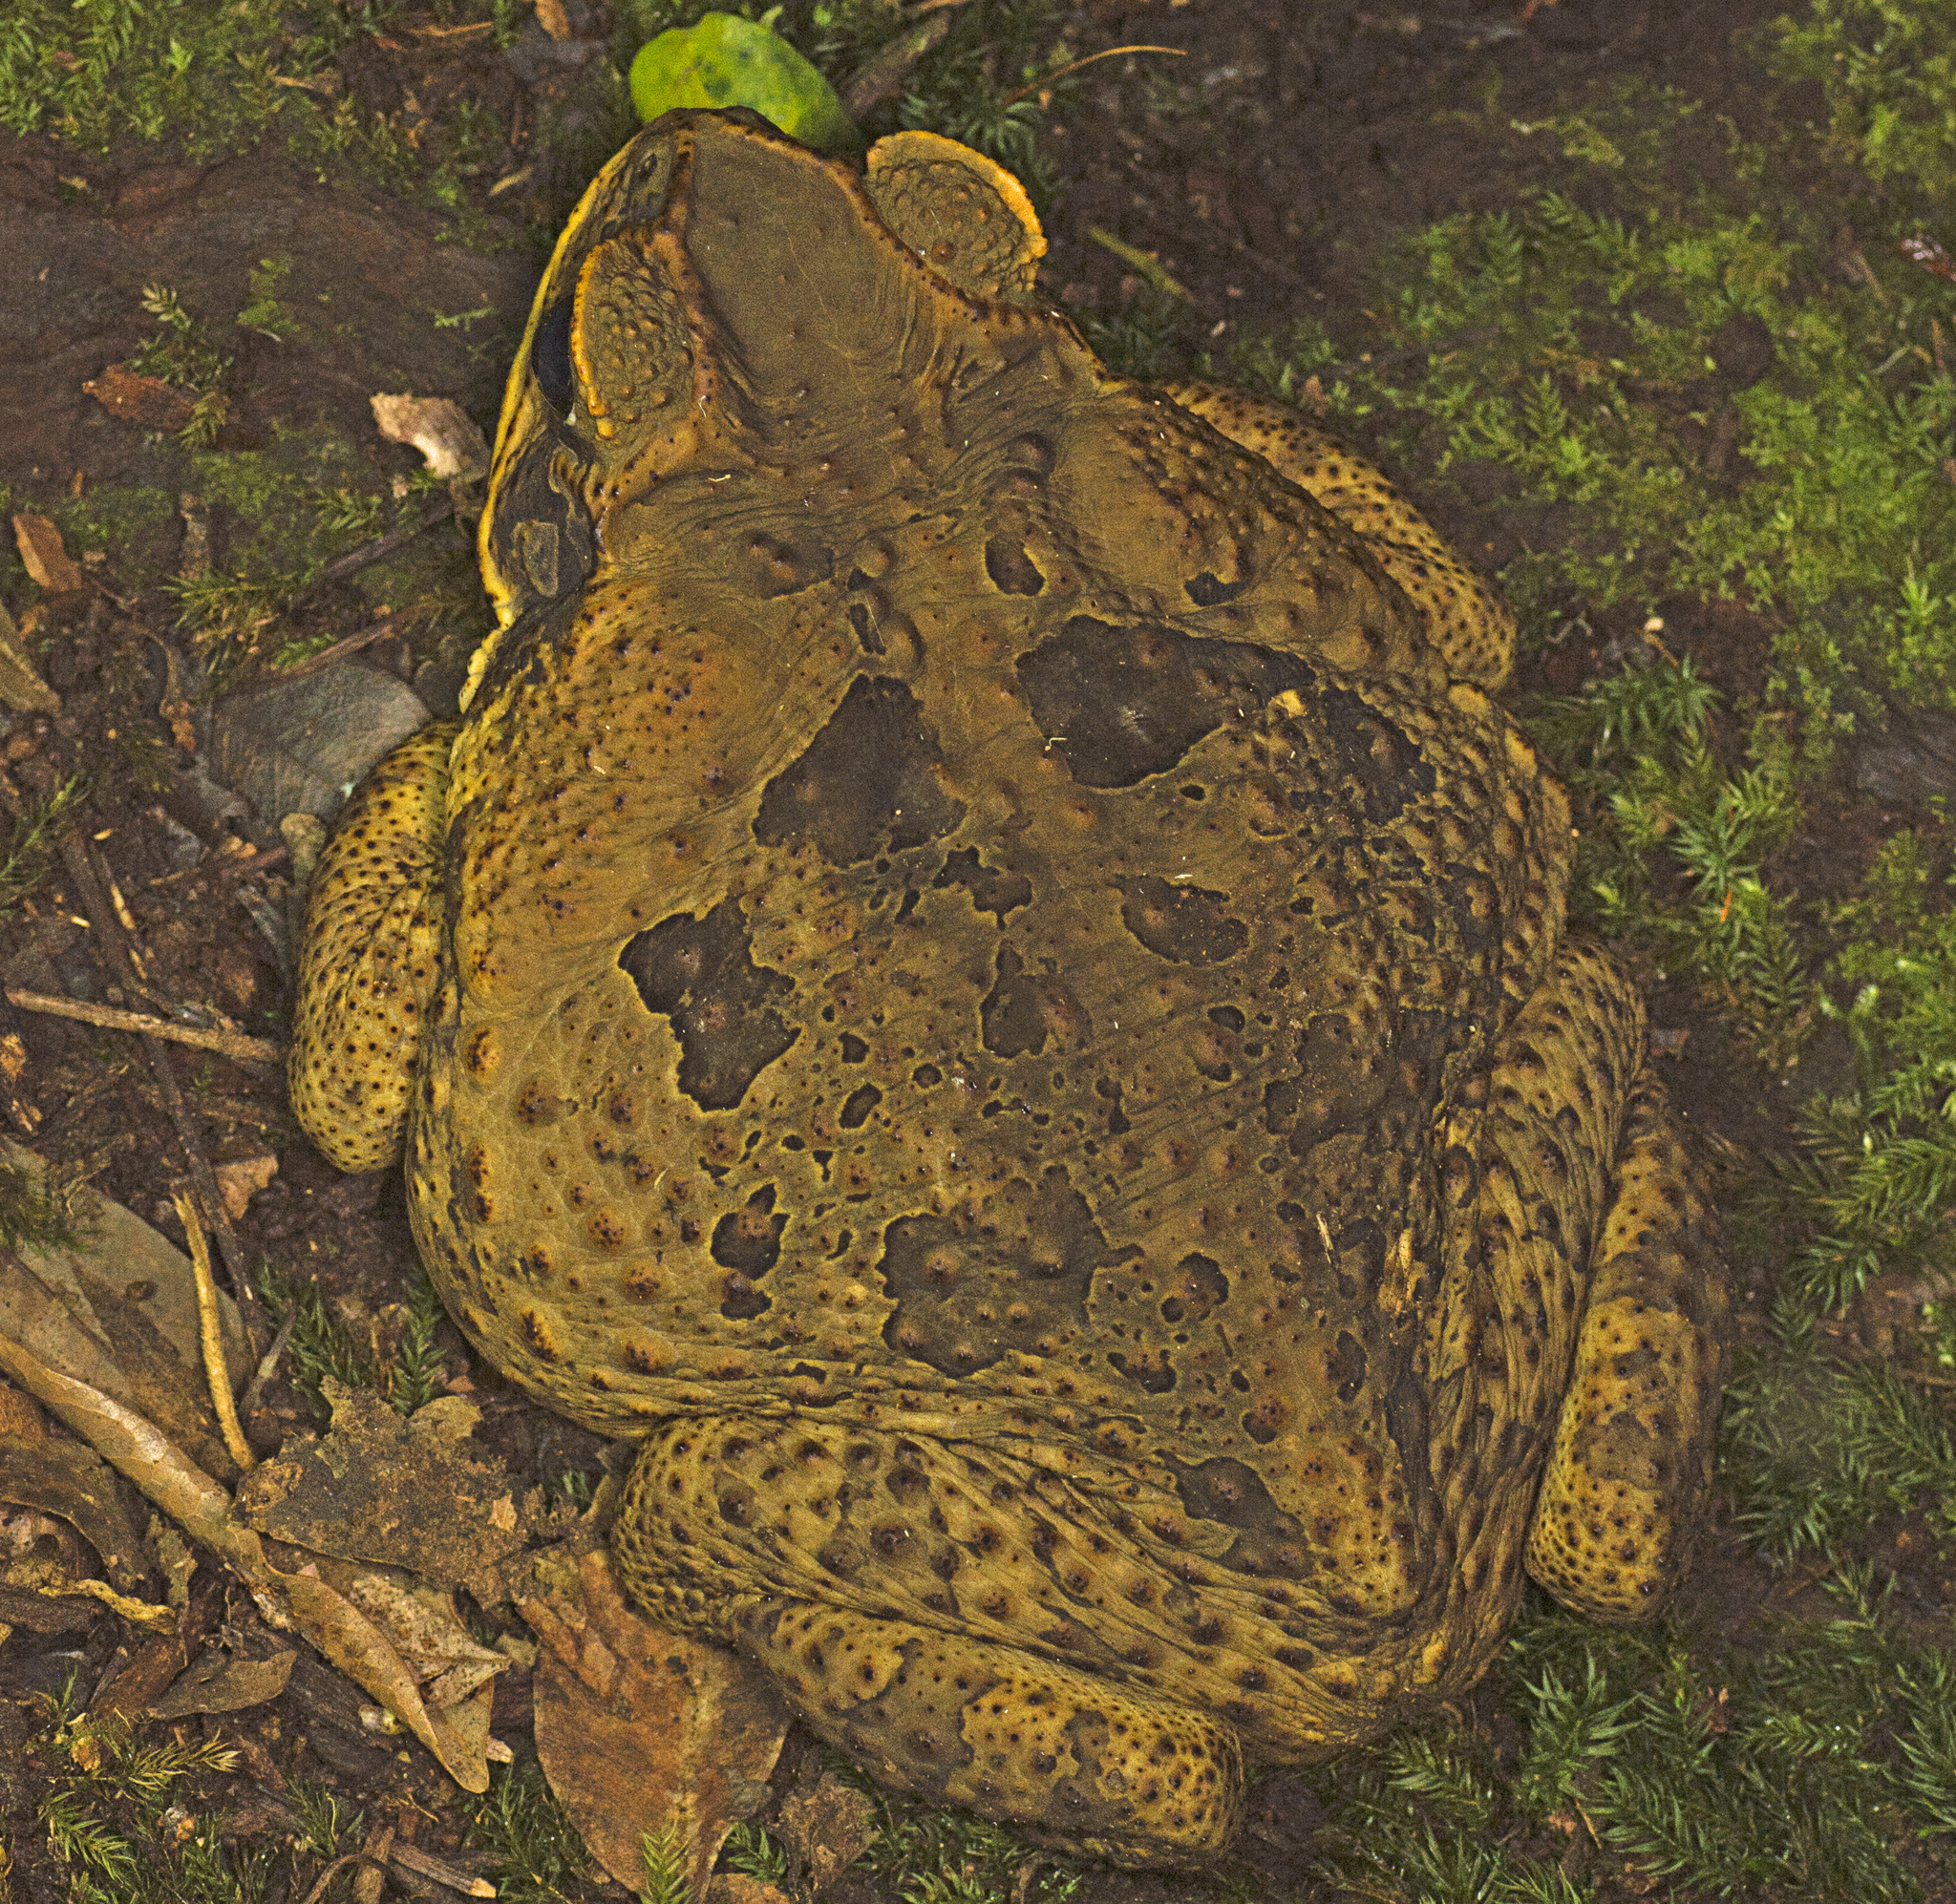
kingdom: Animalia
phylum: Chordata
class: Amphibia
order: Anura
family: Bufonidae
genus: Rhinella
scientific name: Rhinella marina
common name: Cane toad
